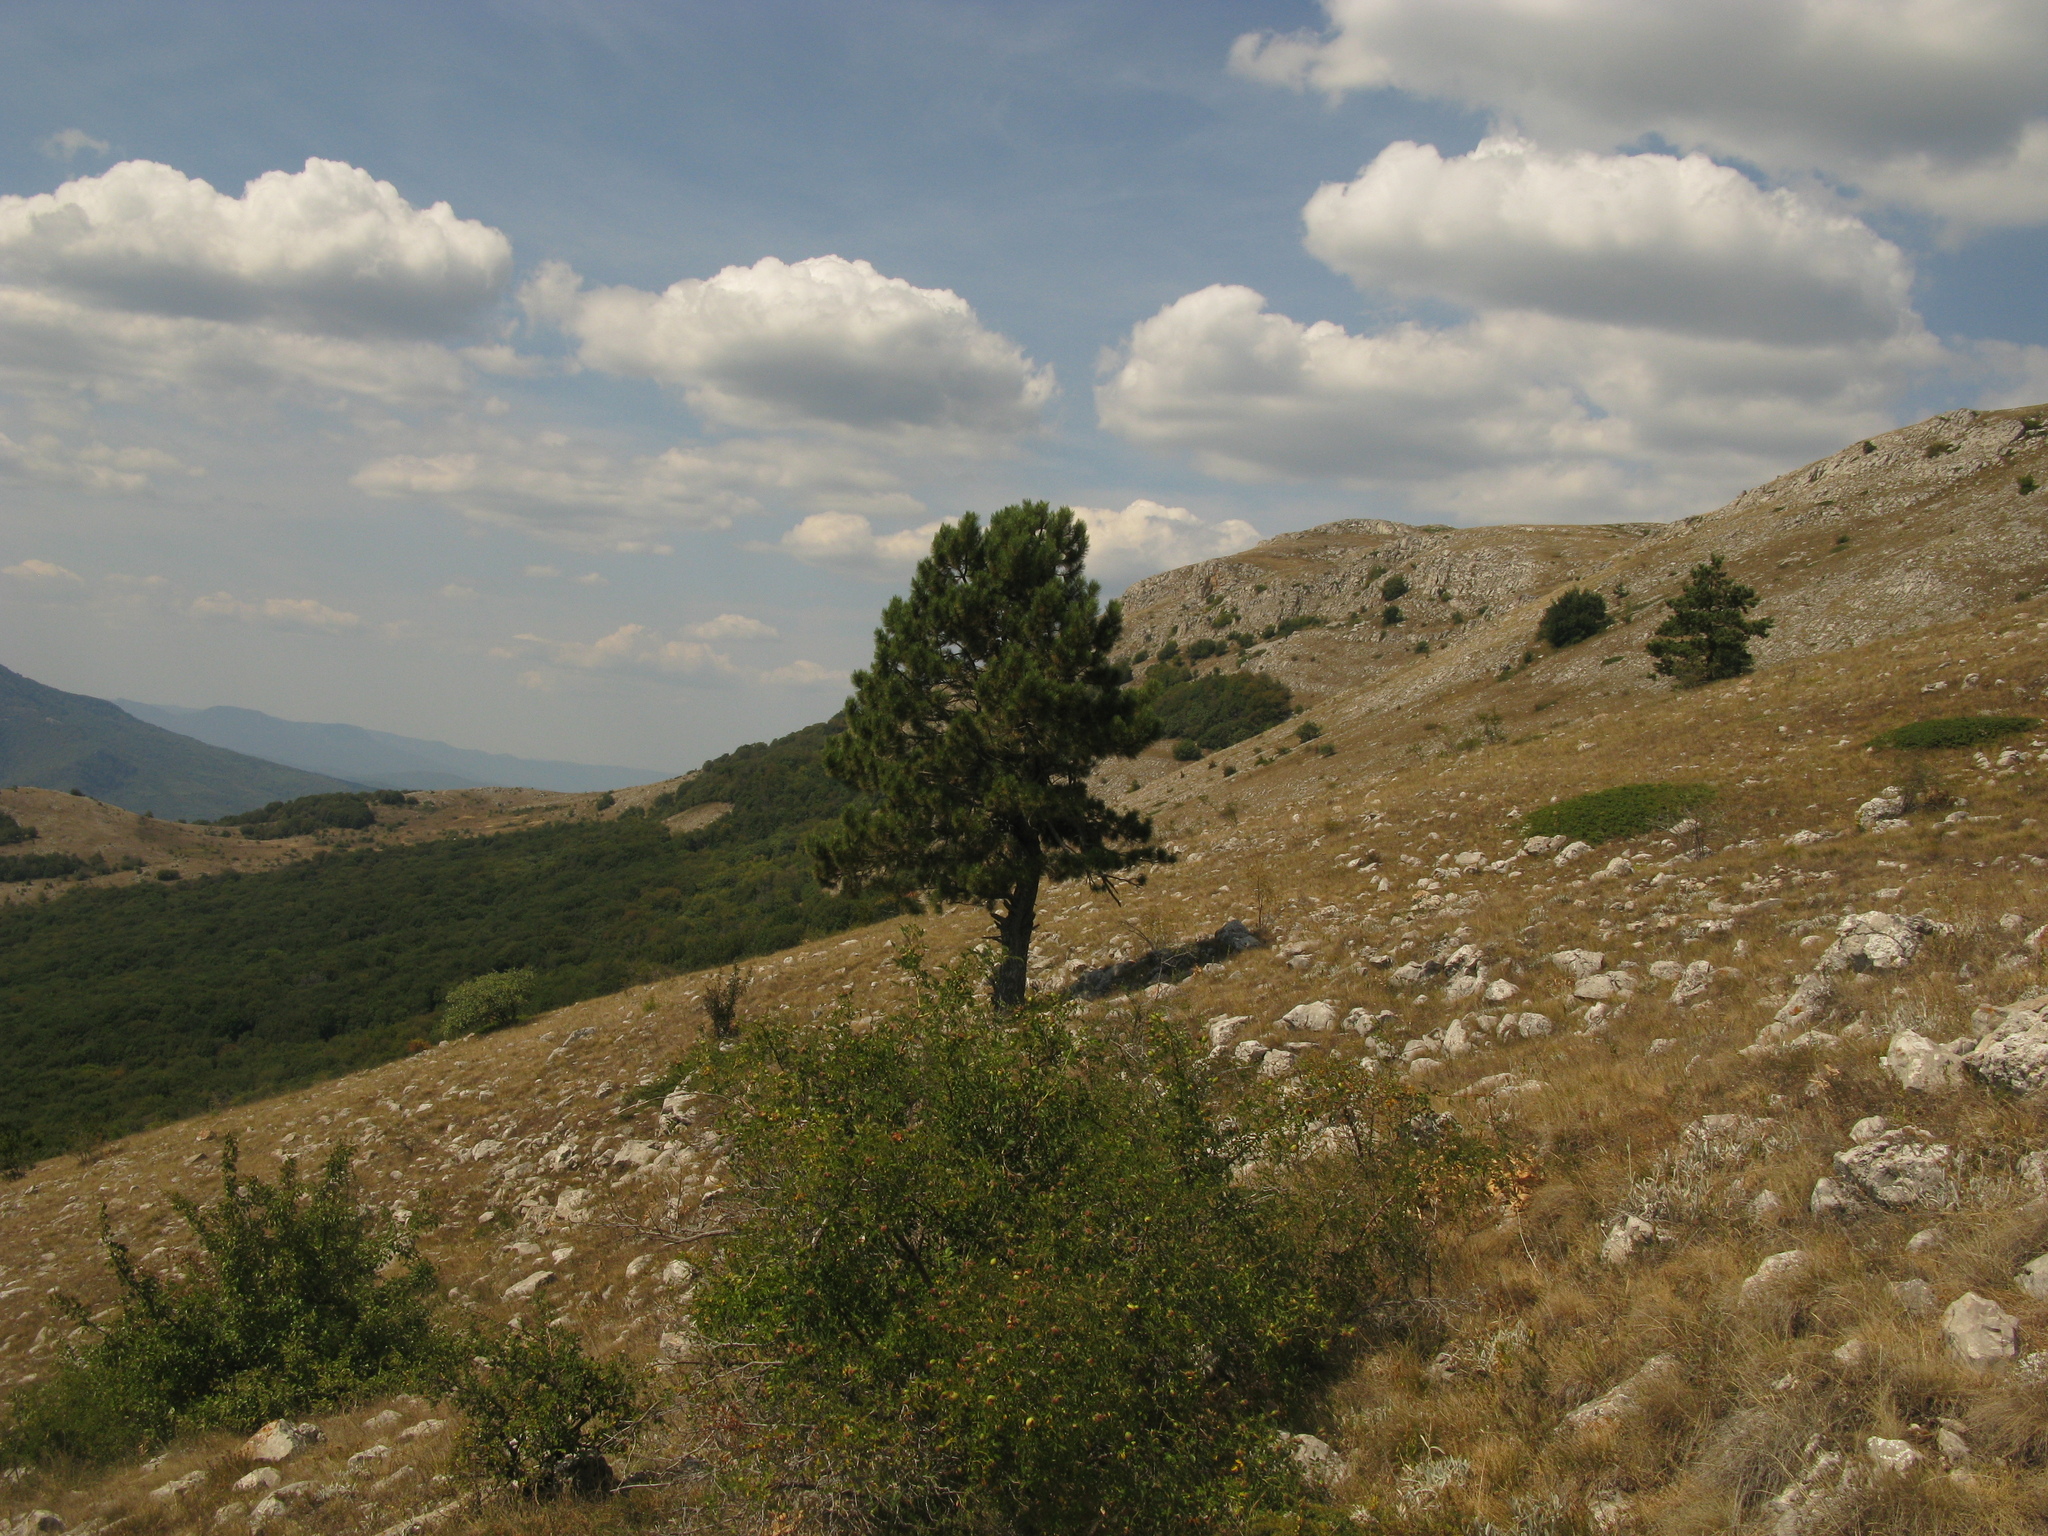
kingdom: Plantae
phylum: Tracheophyta
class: Magnoliopsida
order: Lamiales
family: Oleaceae
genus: Chrysojasminum
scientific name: Chrysojasminum fruticans
